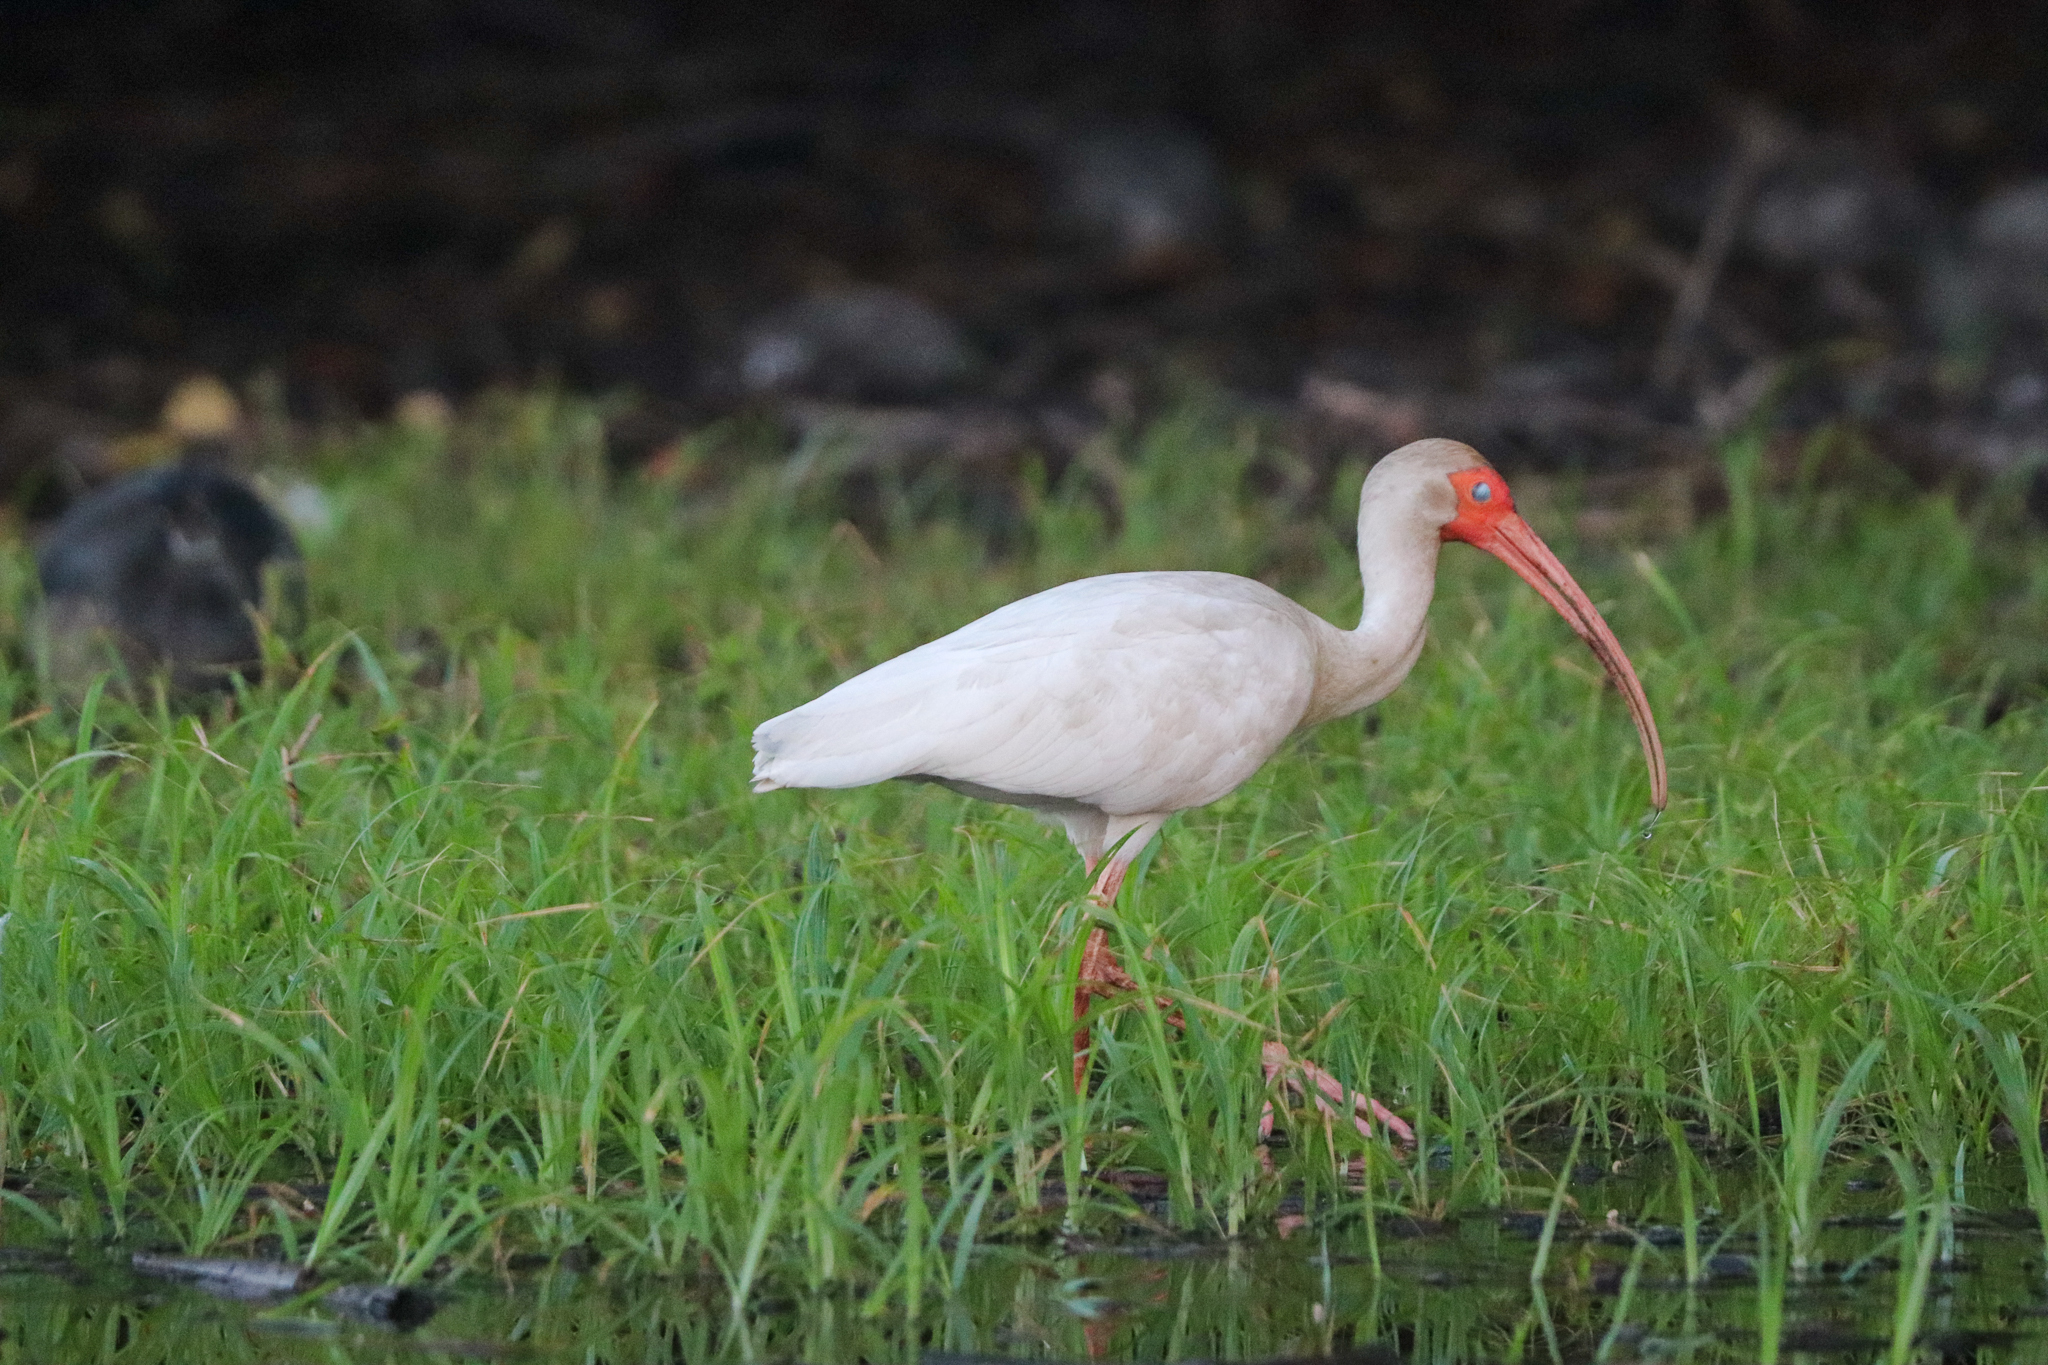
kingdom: Animalia
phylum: Chordata
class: Aves
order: Pelecaniformes
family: Threskiornithidae
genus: Eudocimus
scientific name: Eudocimus albus
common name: White ibis
